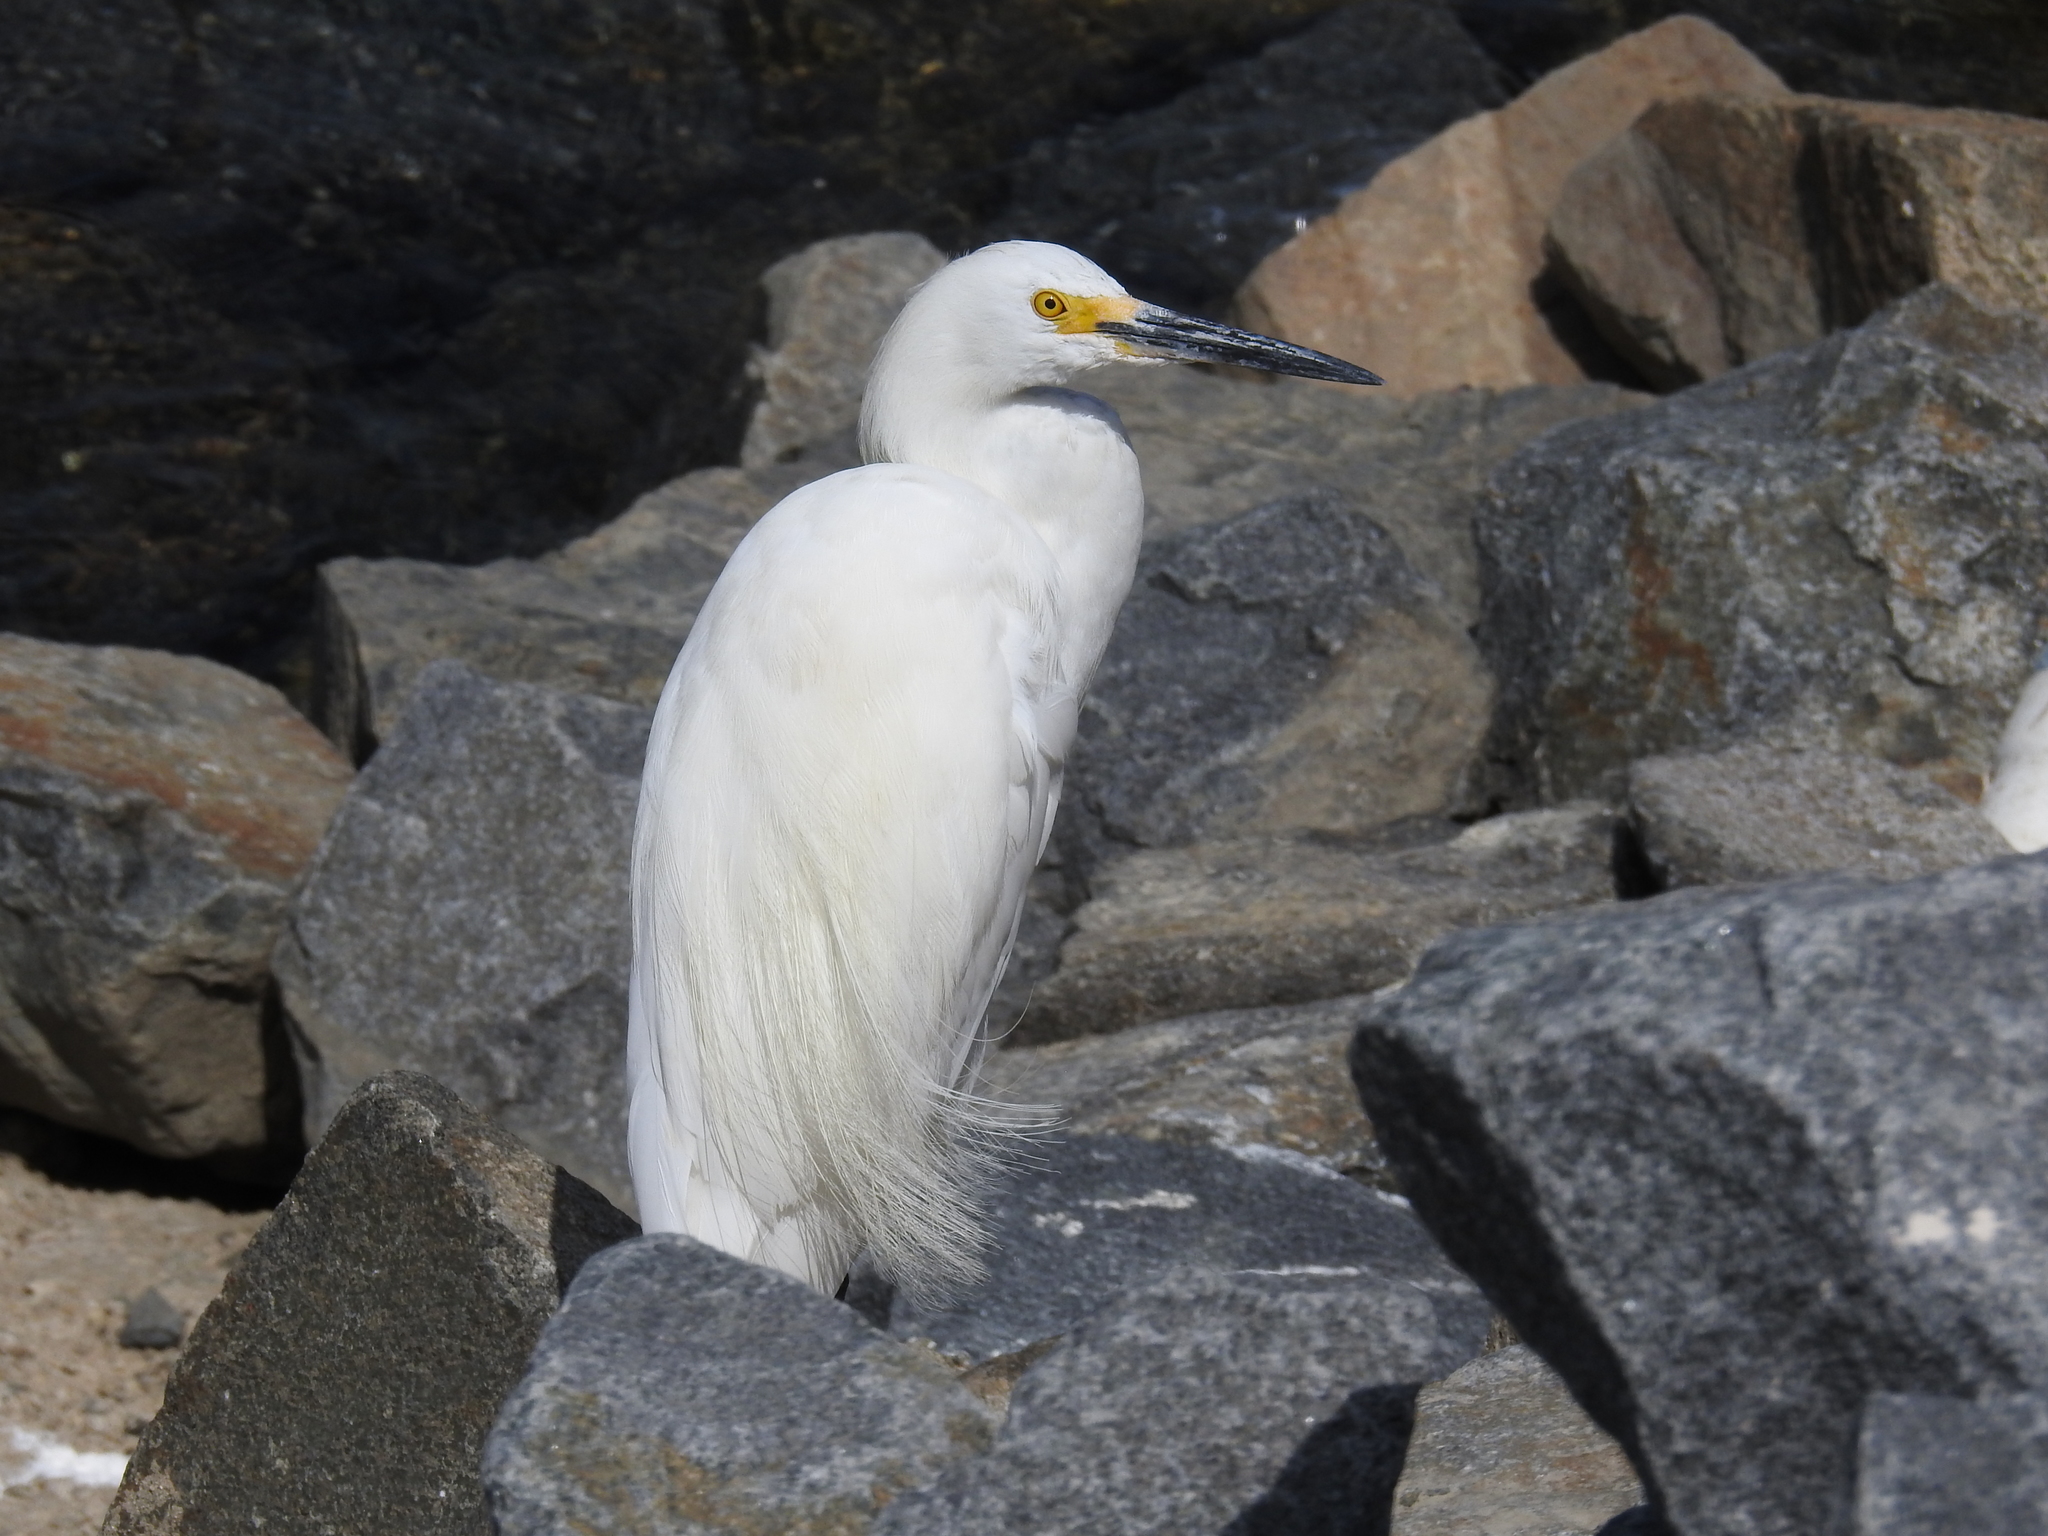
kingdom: Animalia
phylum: Chordata
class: Aves
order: Pelecaniformes
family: Ardeidae
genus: Egretta
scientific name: Egretta thula
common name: Snowy egret
